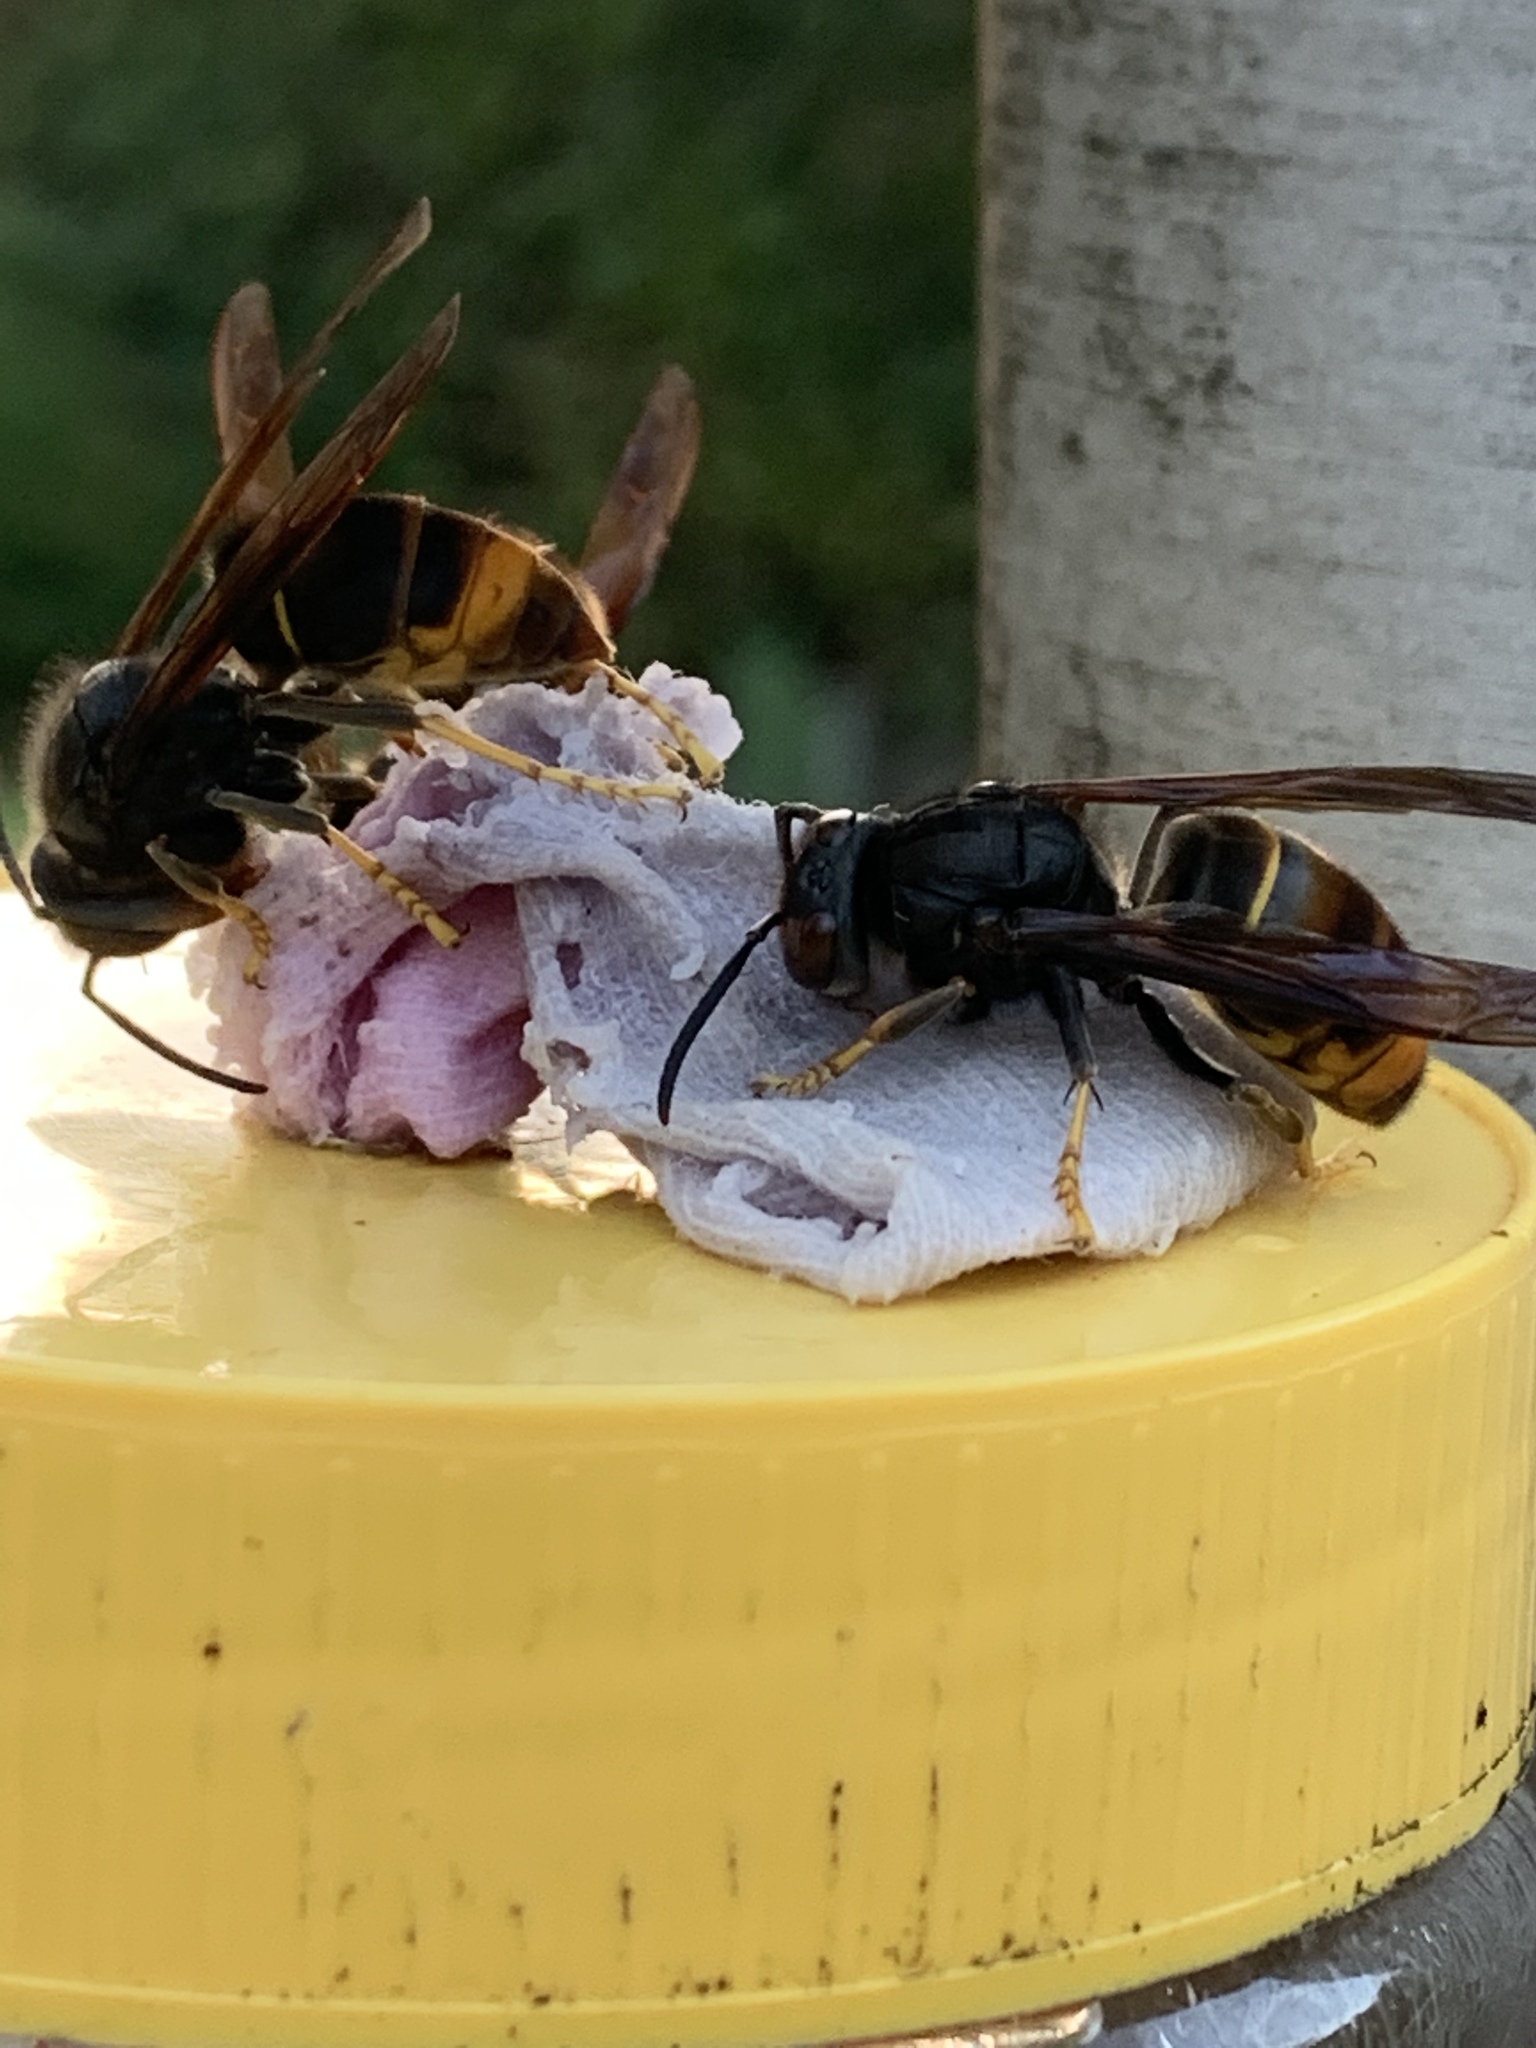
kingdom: Animalia
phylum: Arthropoda
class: Insecta
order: Hymenoptera
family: Vespidae
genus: Vespa
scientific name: Vespa velutina
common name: Asian hornet
